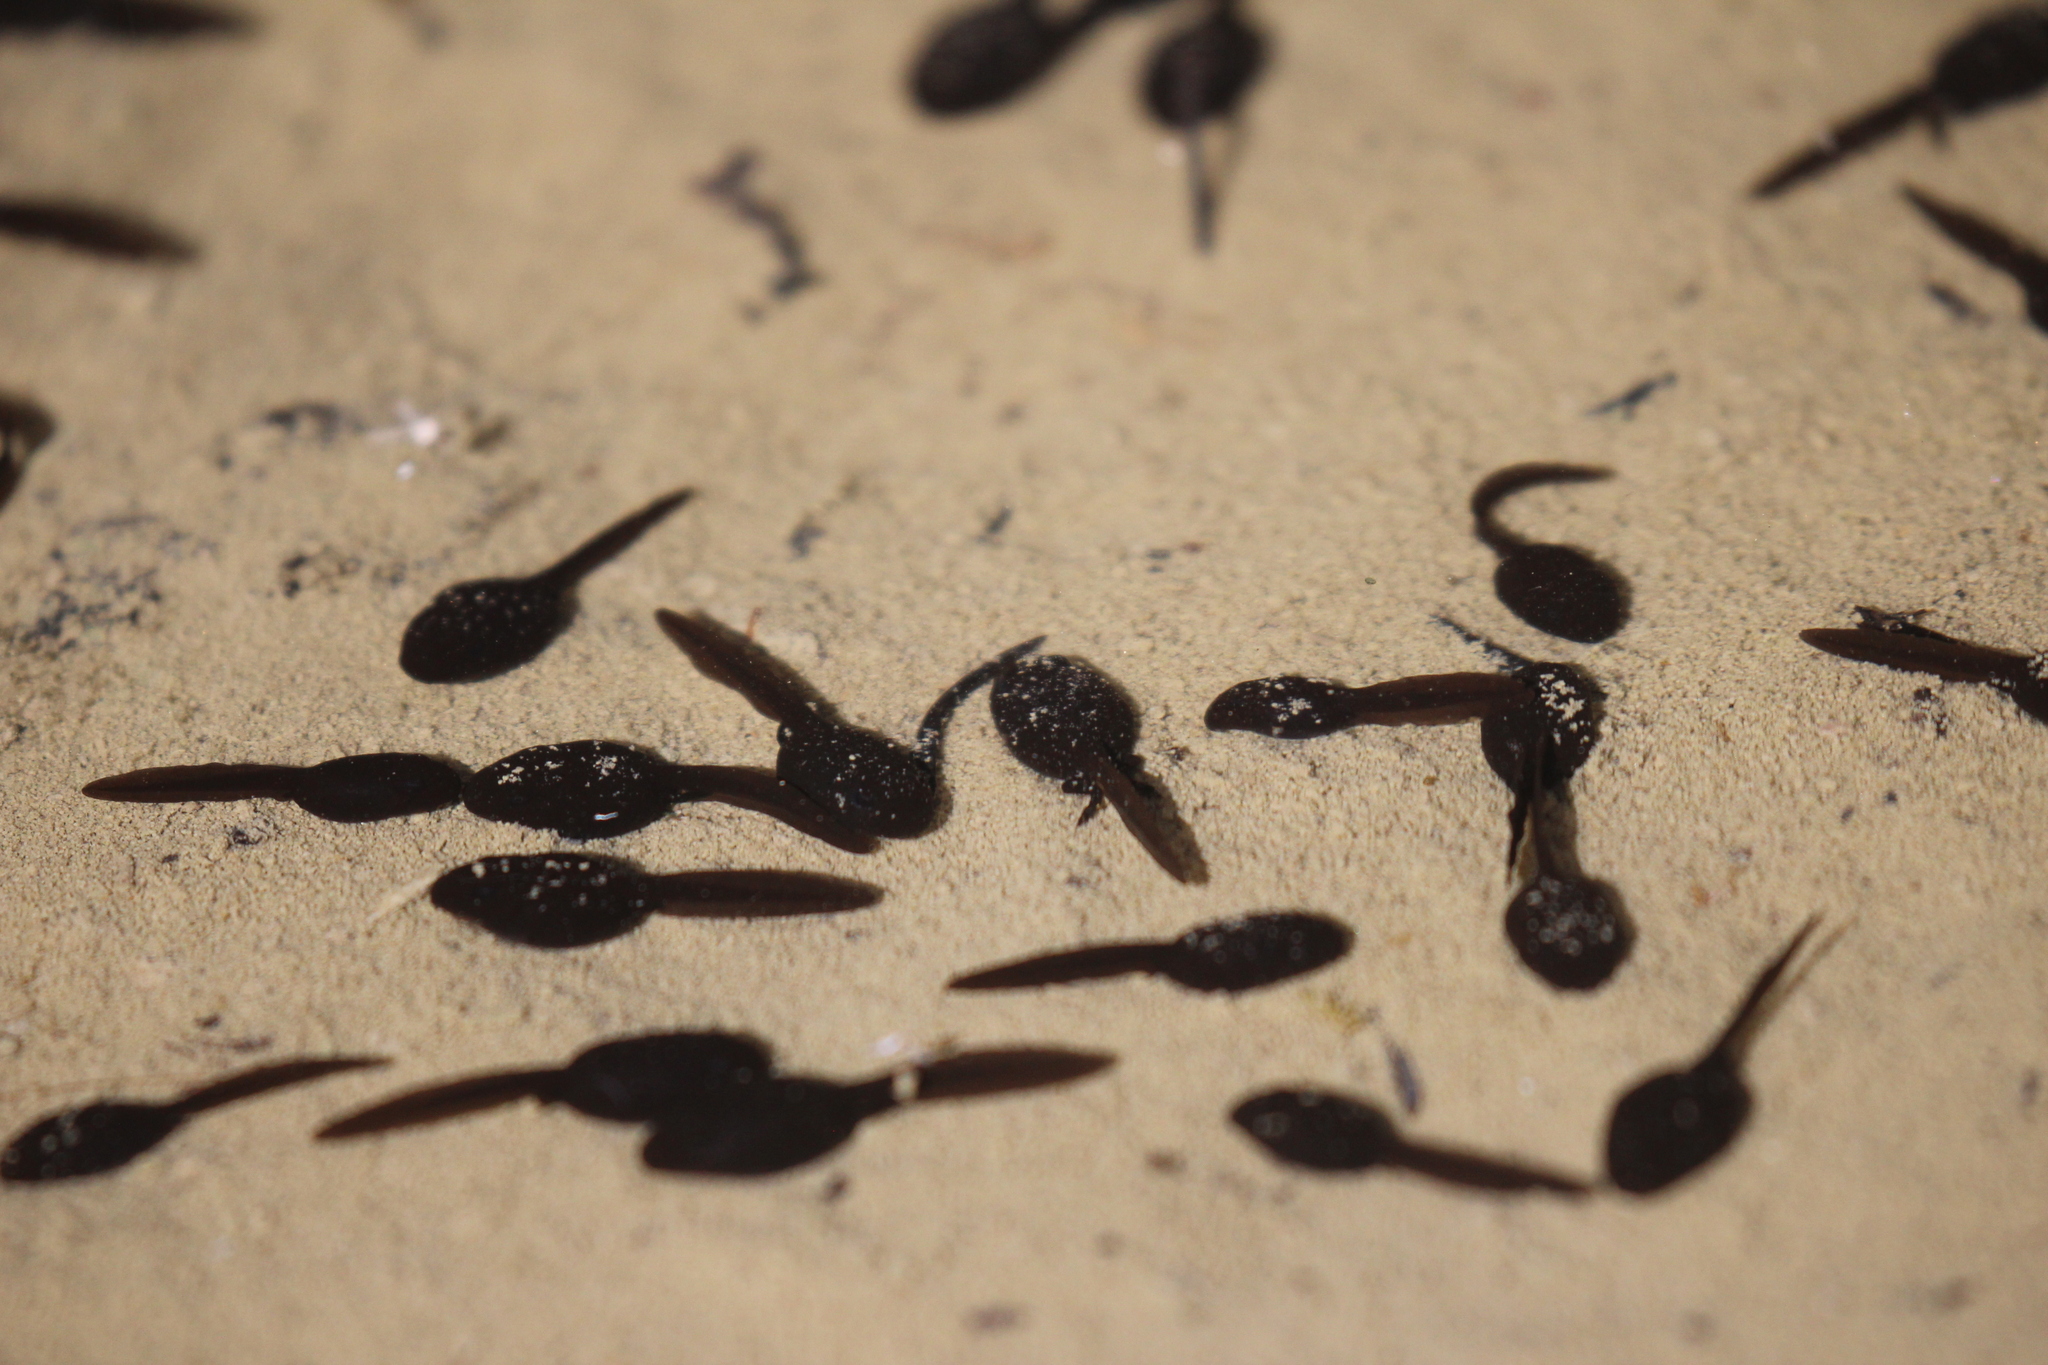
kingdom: Animalia
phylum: Chordata
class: Amphibia
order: Anura
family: Bufonidae
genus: Anaxyrus
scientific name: Anaxyrus boreas
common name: Western toad
